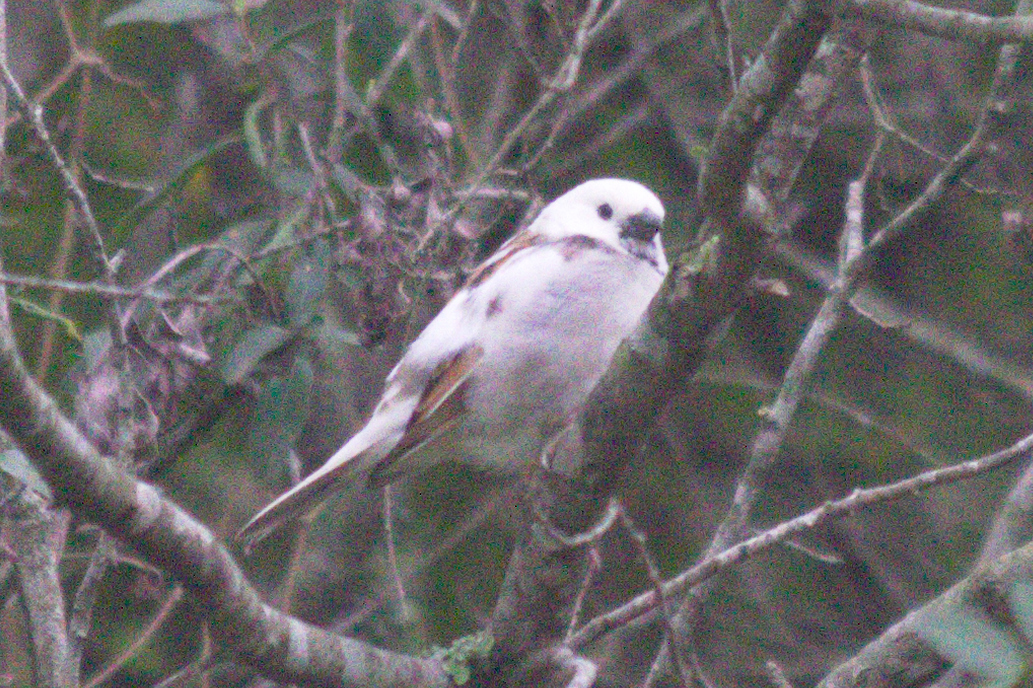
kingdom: Animalia
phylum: Chordata
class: Aves
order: Passeriformes
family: Passeridae
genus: Passer
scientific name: Passer domesticus
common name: House sparrow
